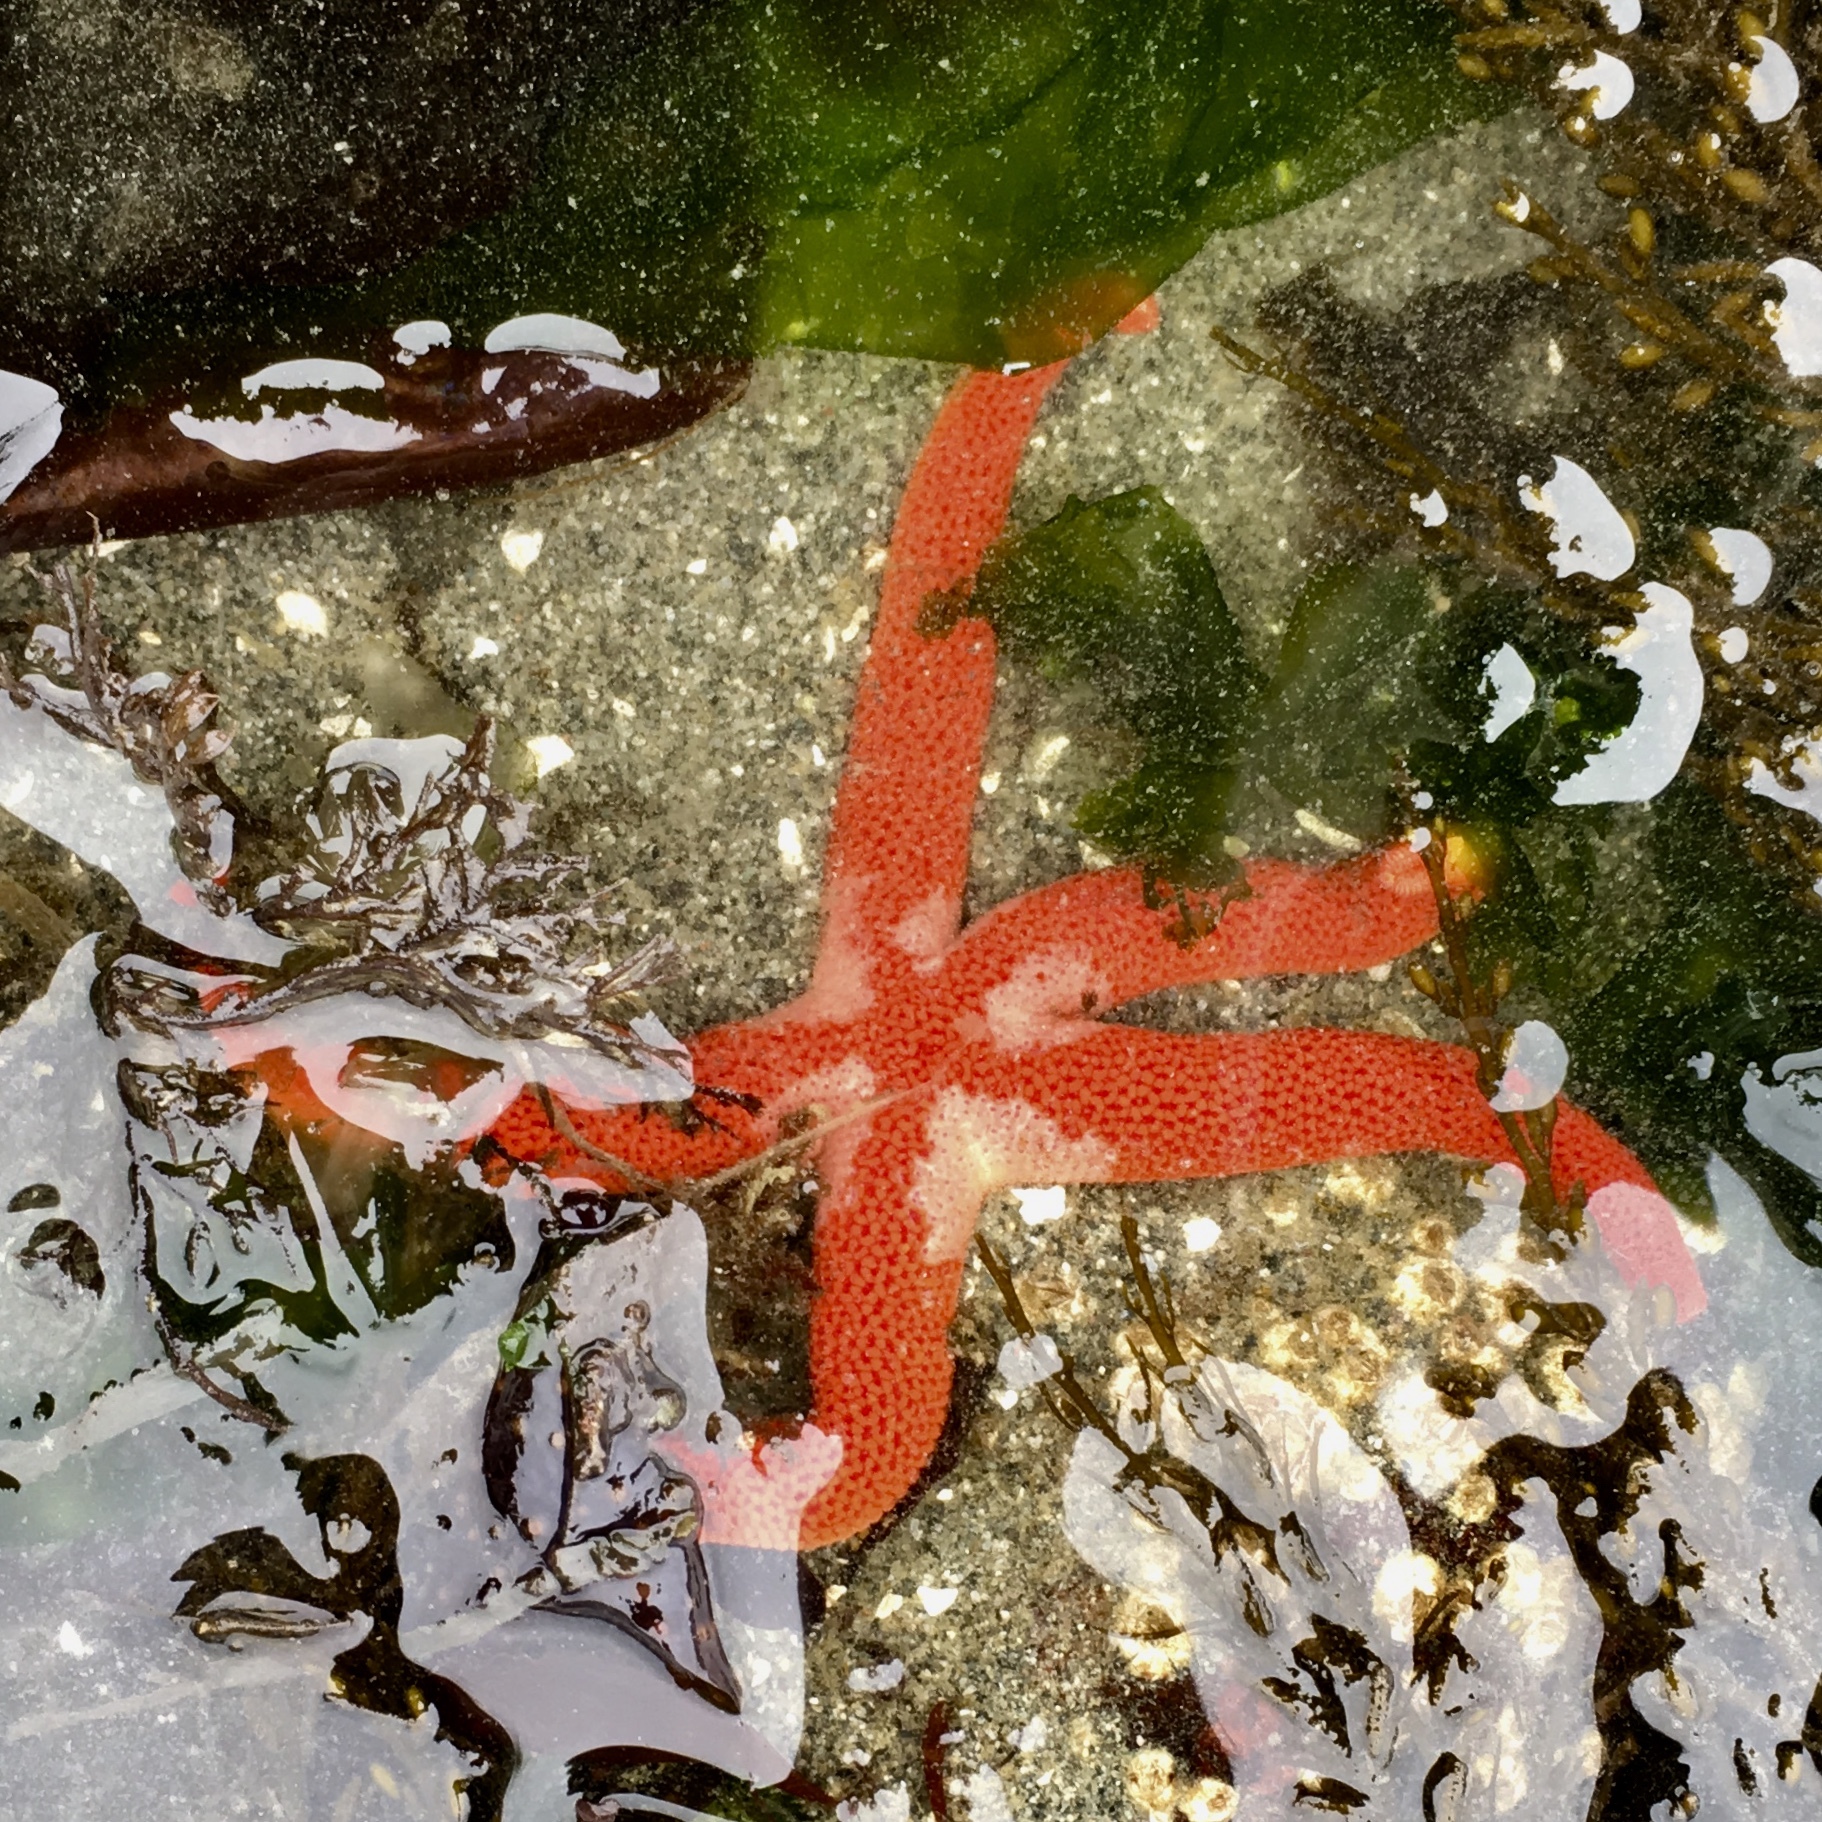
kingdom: Animalia
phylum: Echinodermata
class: Asteroidea
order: Spinulosida
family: Echinasteridae
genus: Henricia
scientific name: Henricia
